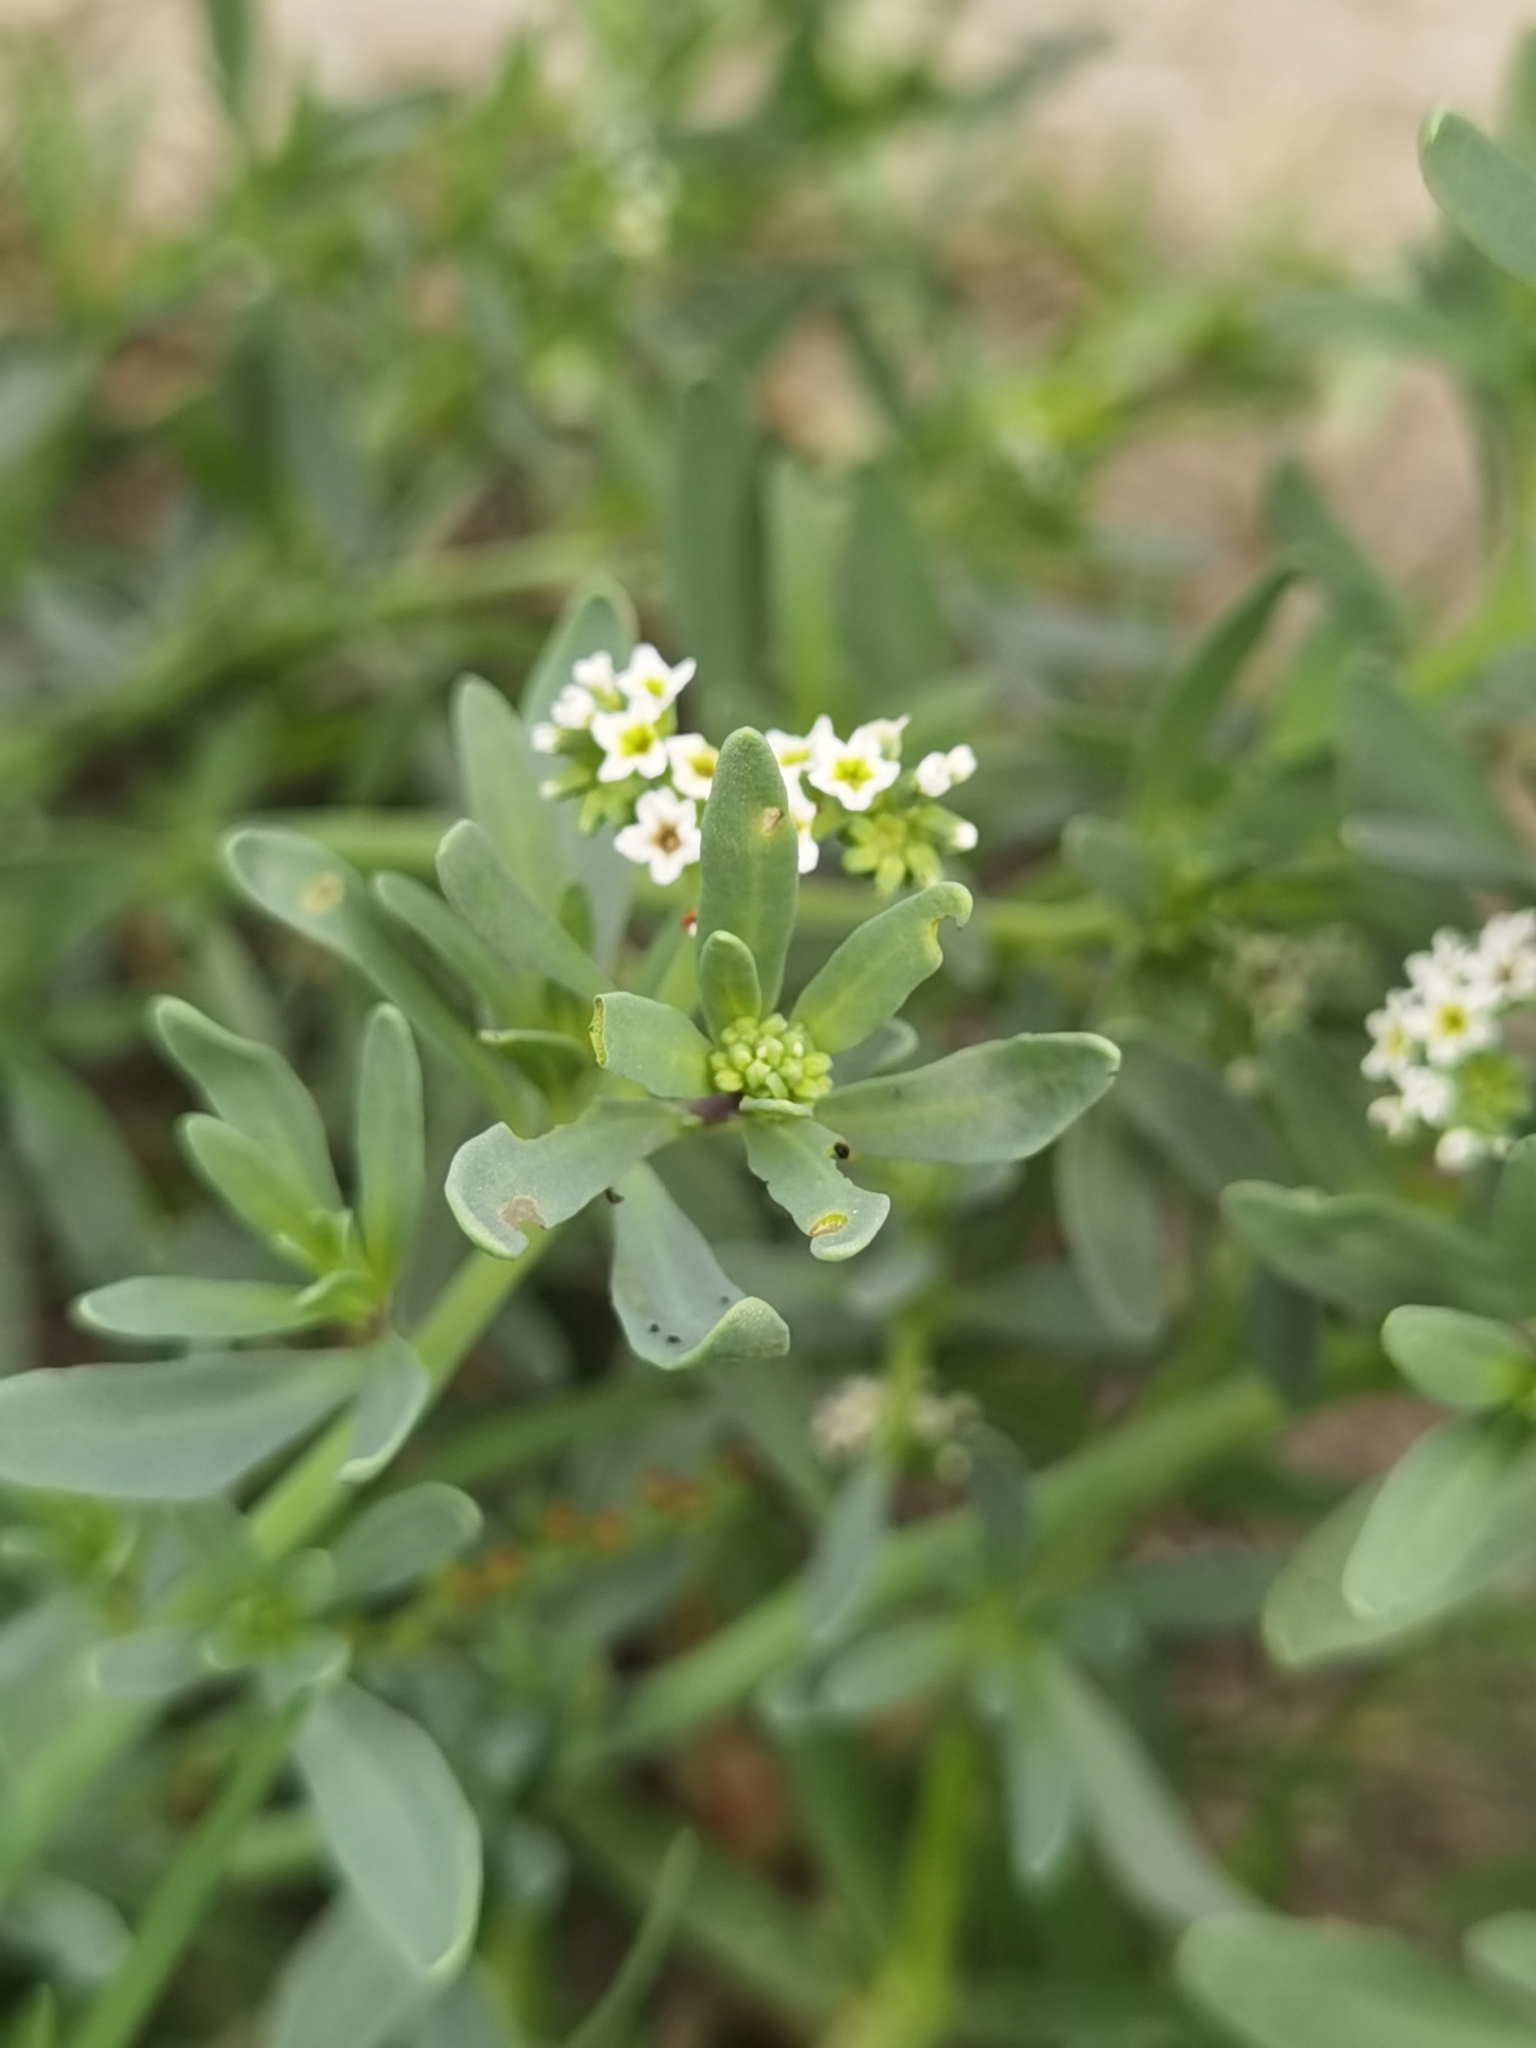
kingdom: Plantae
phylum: Tracheophyta
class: Magnoliopsida
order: Boraginales
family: Heliotropiaceae
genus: Heliotropium
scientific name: Heliotropium curassavicum
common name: Seaside heliotrope
